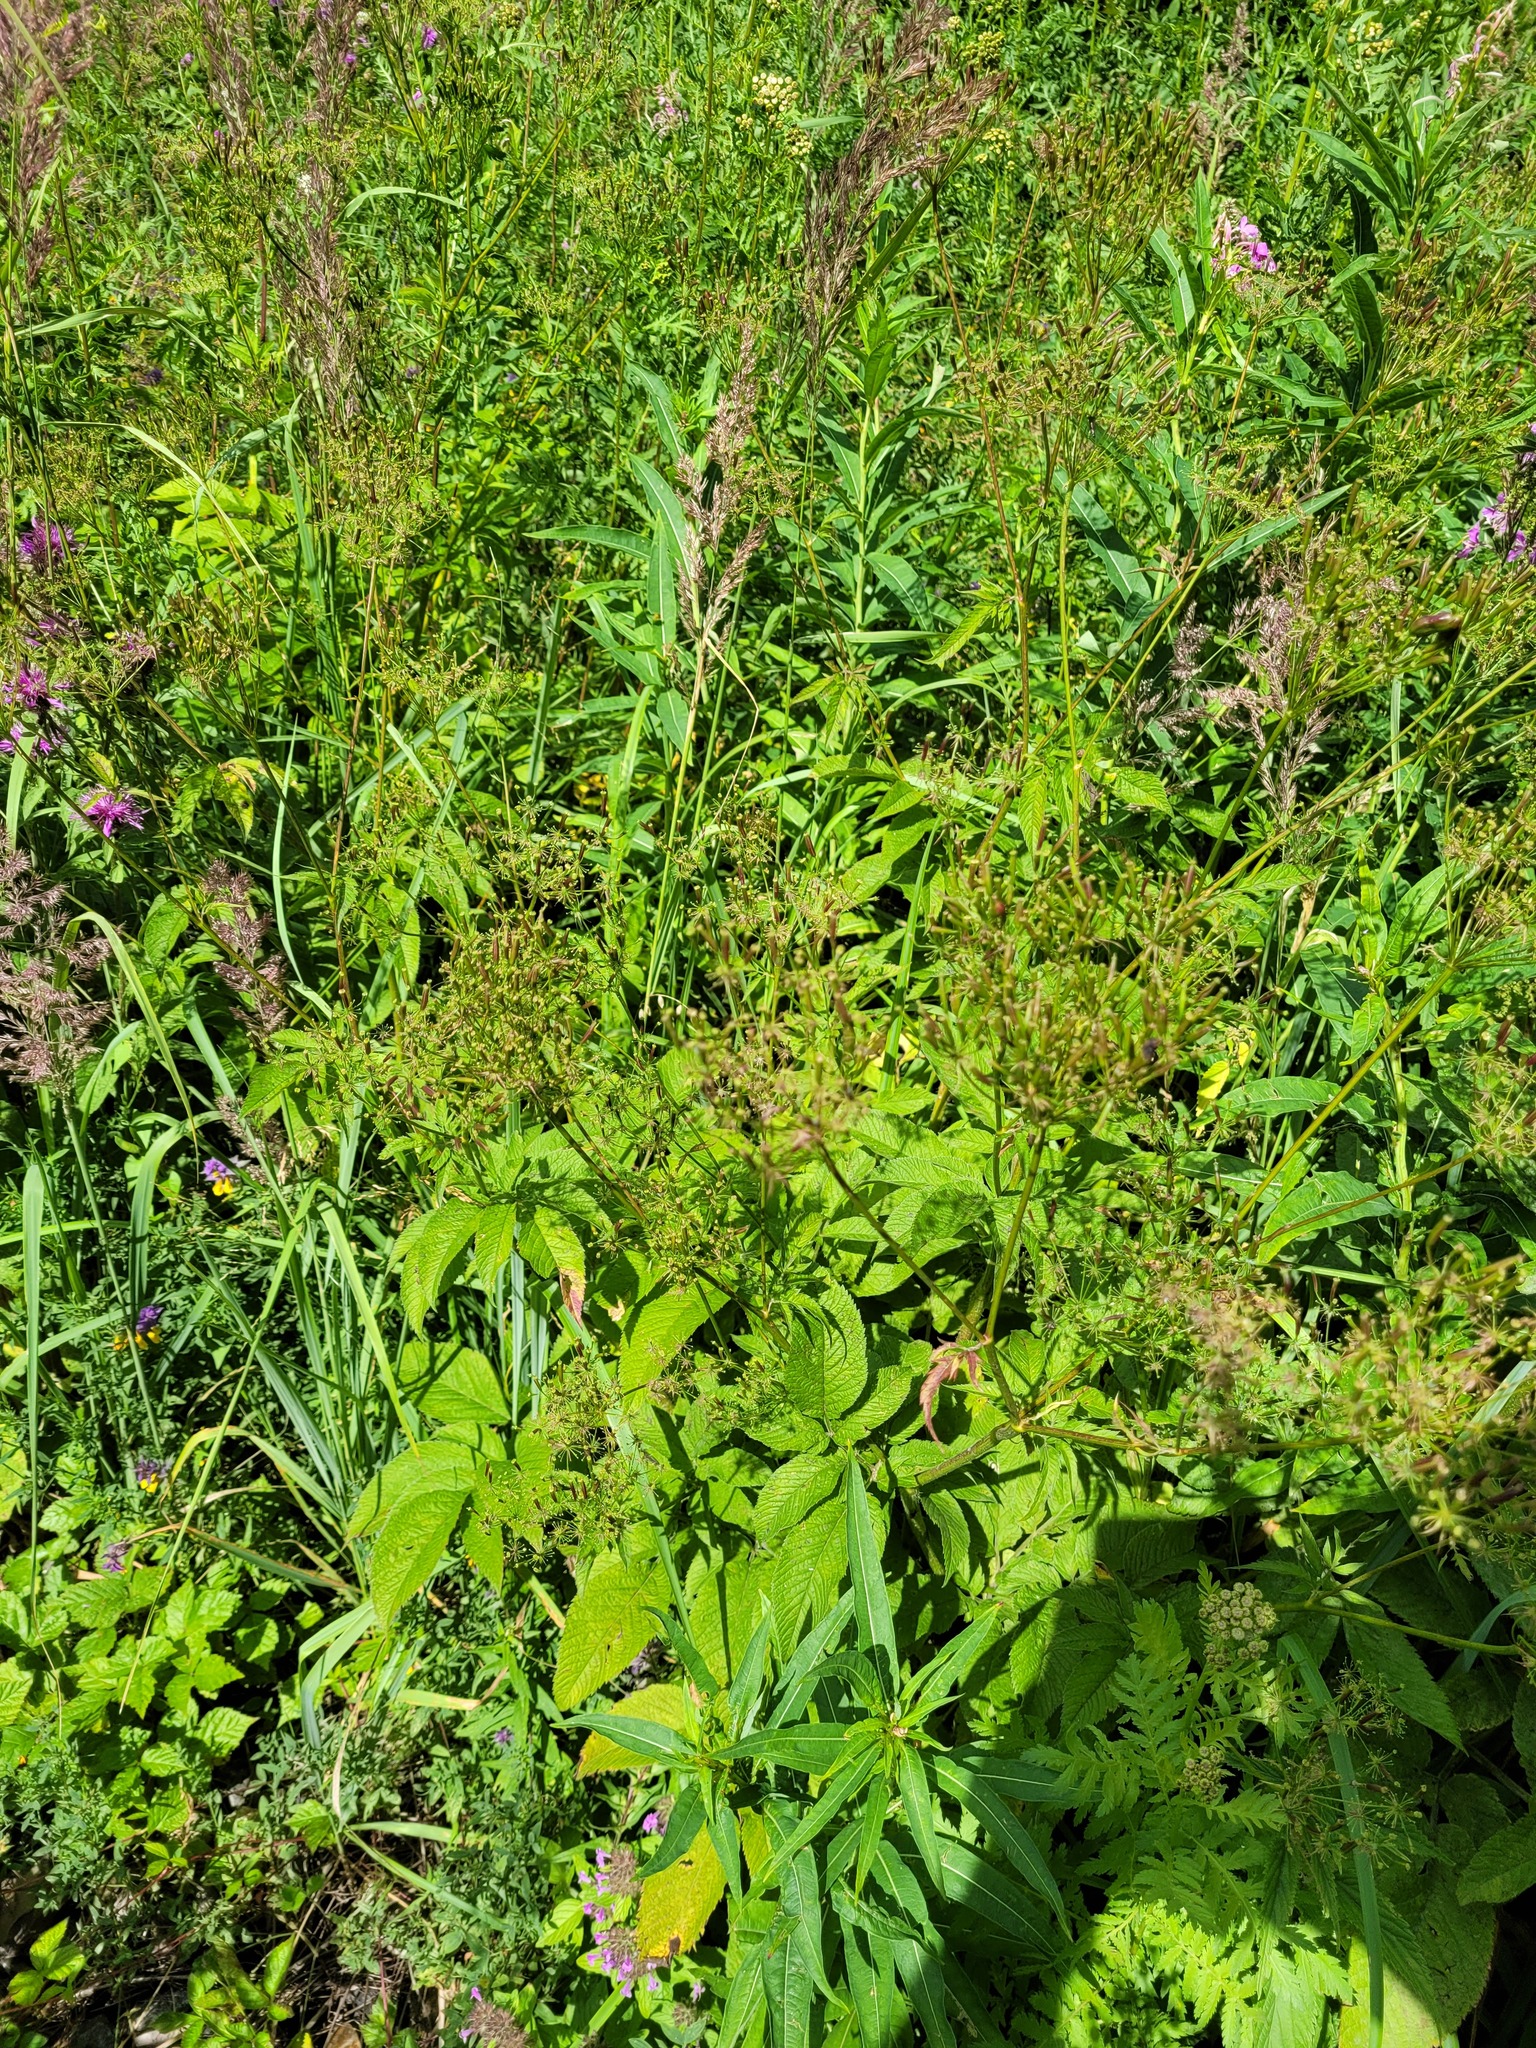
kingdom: Plantae
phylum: Tracheophyta
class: Magnoliopsida
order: Apiales
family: Apiaceae
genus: Chaerophyllum
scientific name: Chaerophyllum aromaticum
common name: Broadleaf chervil
